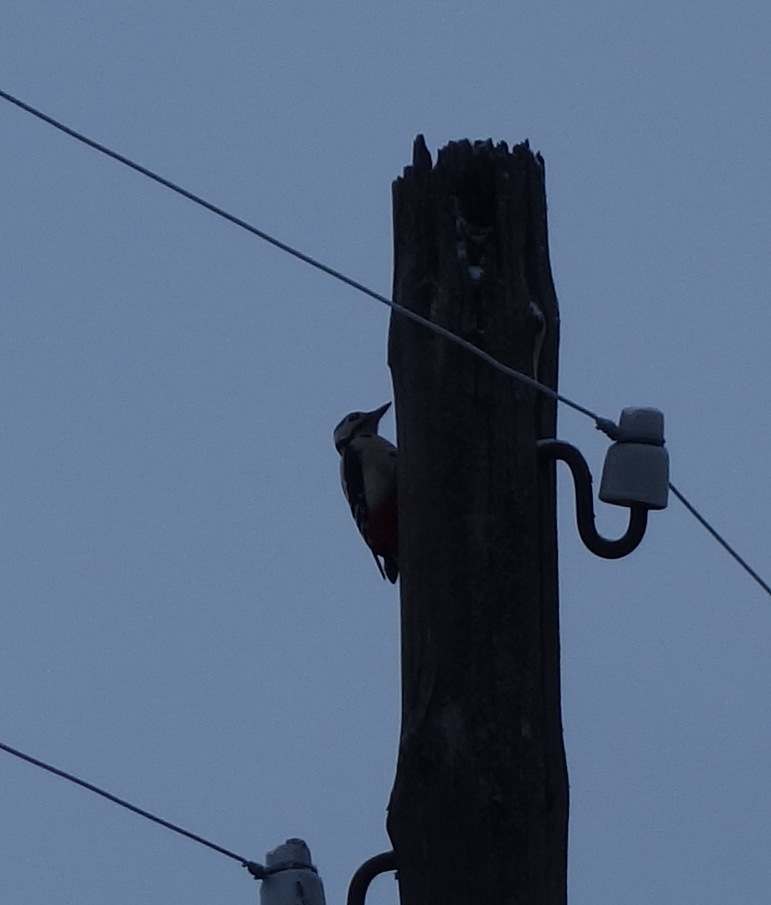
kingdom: Animalia
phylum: Chordata
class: Aves
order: Piciformes
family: Picidae
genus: Dendrocopos
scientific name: Dendrocopos major
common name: Great spotted woodpecker
